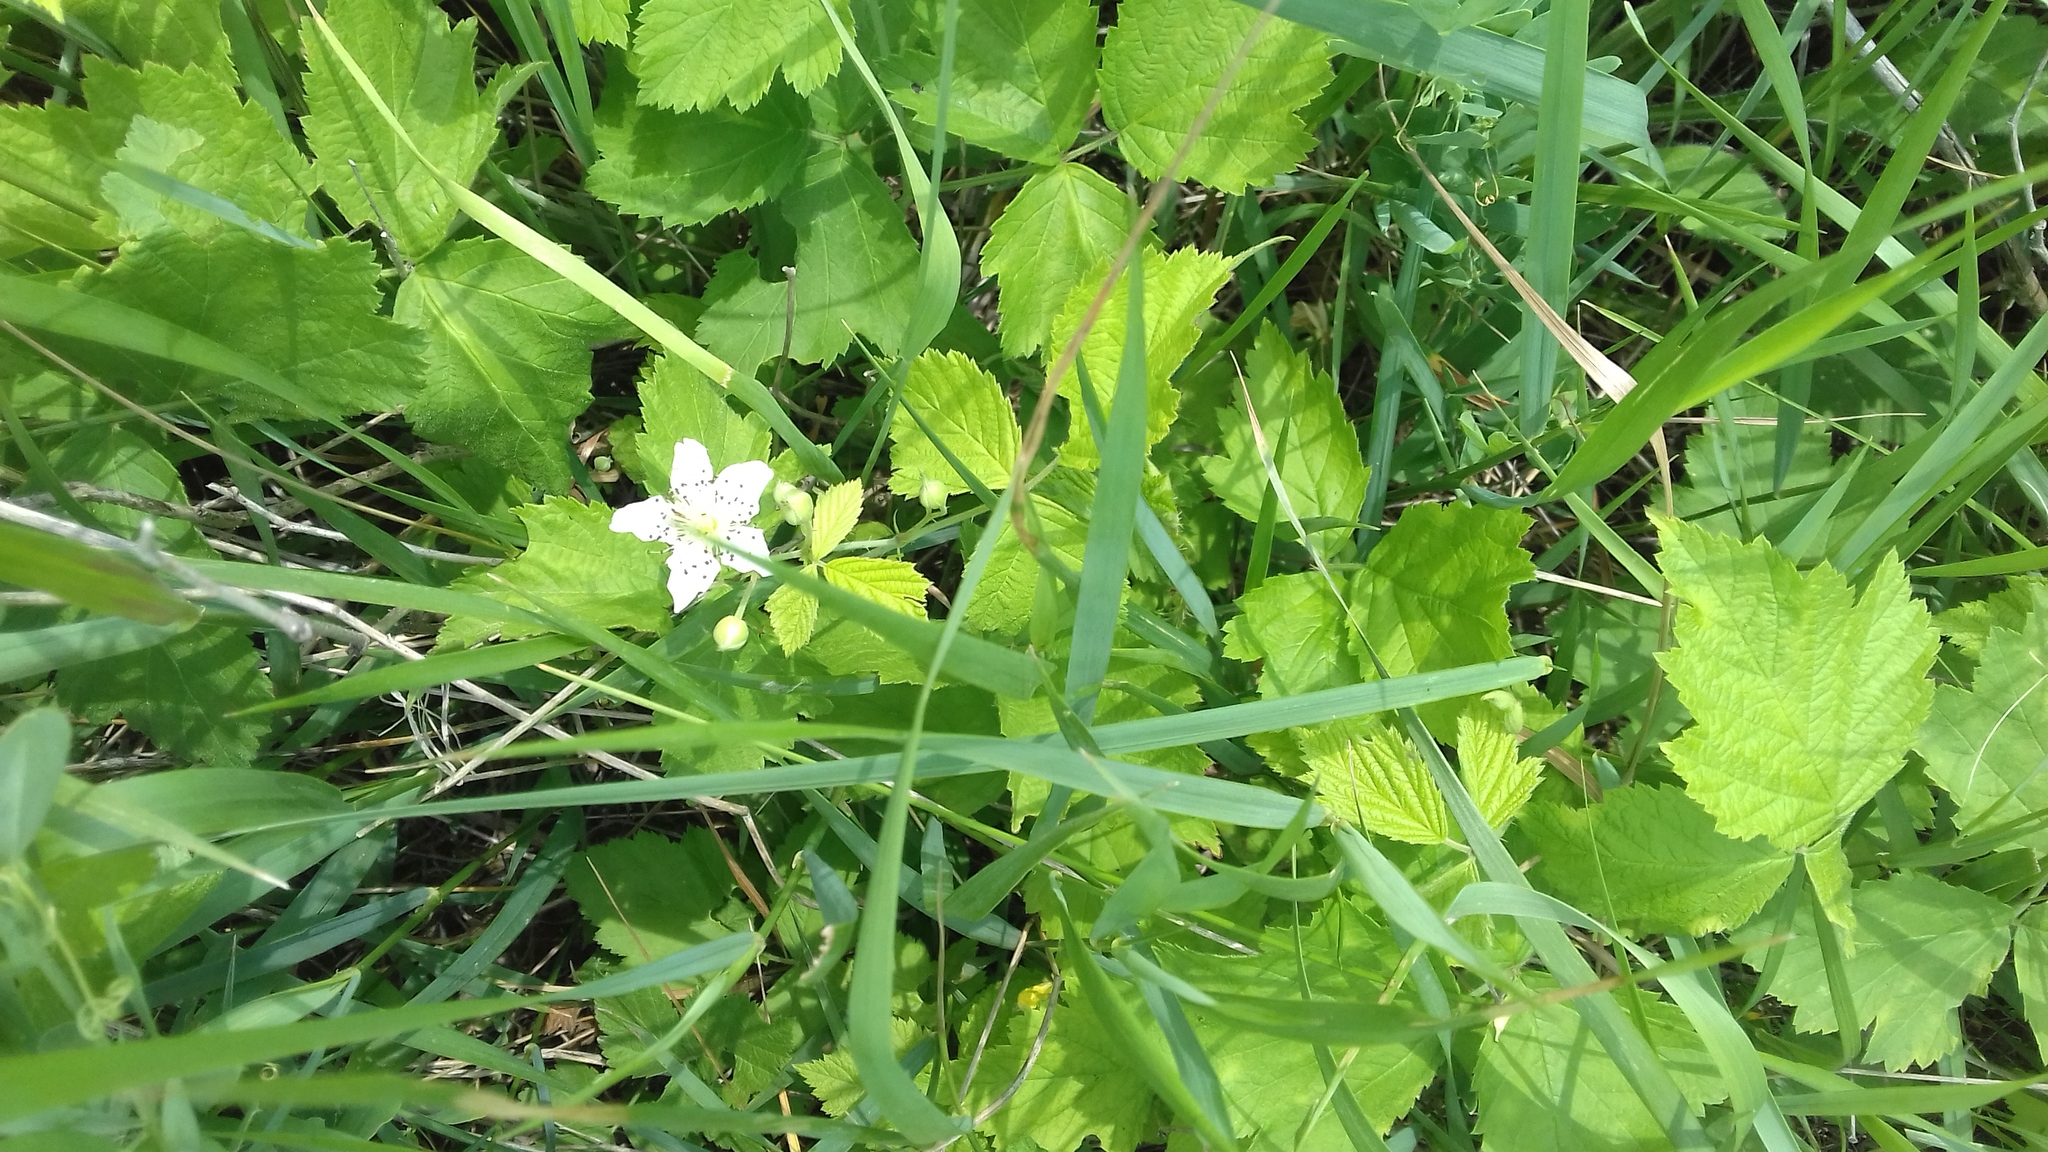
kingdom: Plantae
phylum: Tracheophyta
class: Magnoliopsida
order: Rosales
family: Rosaceae
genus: Rubus
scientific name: Rubus caesius
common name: Dewberry
